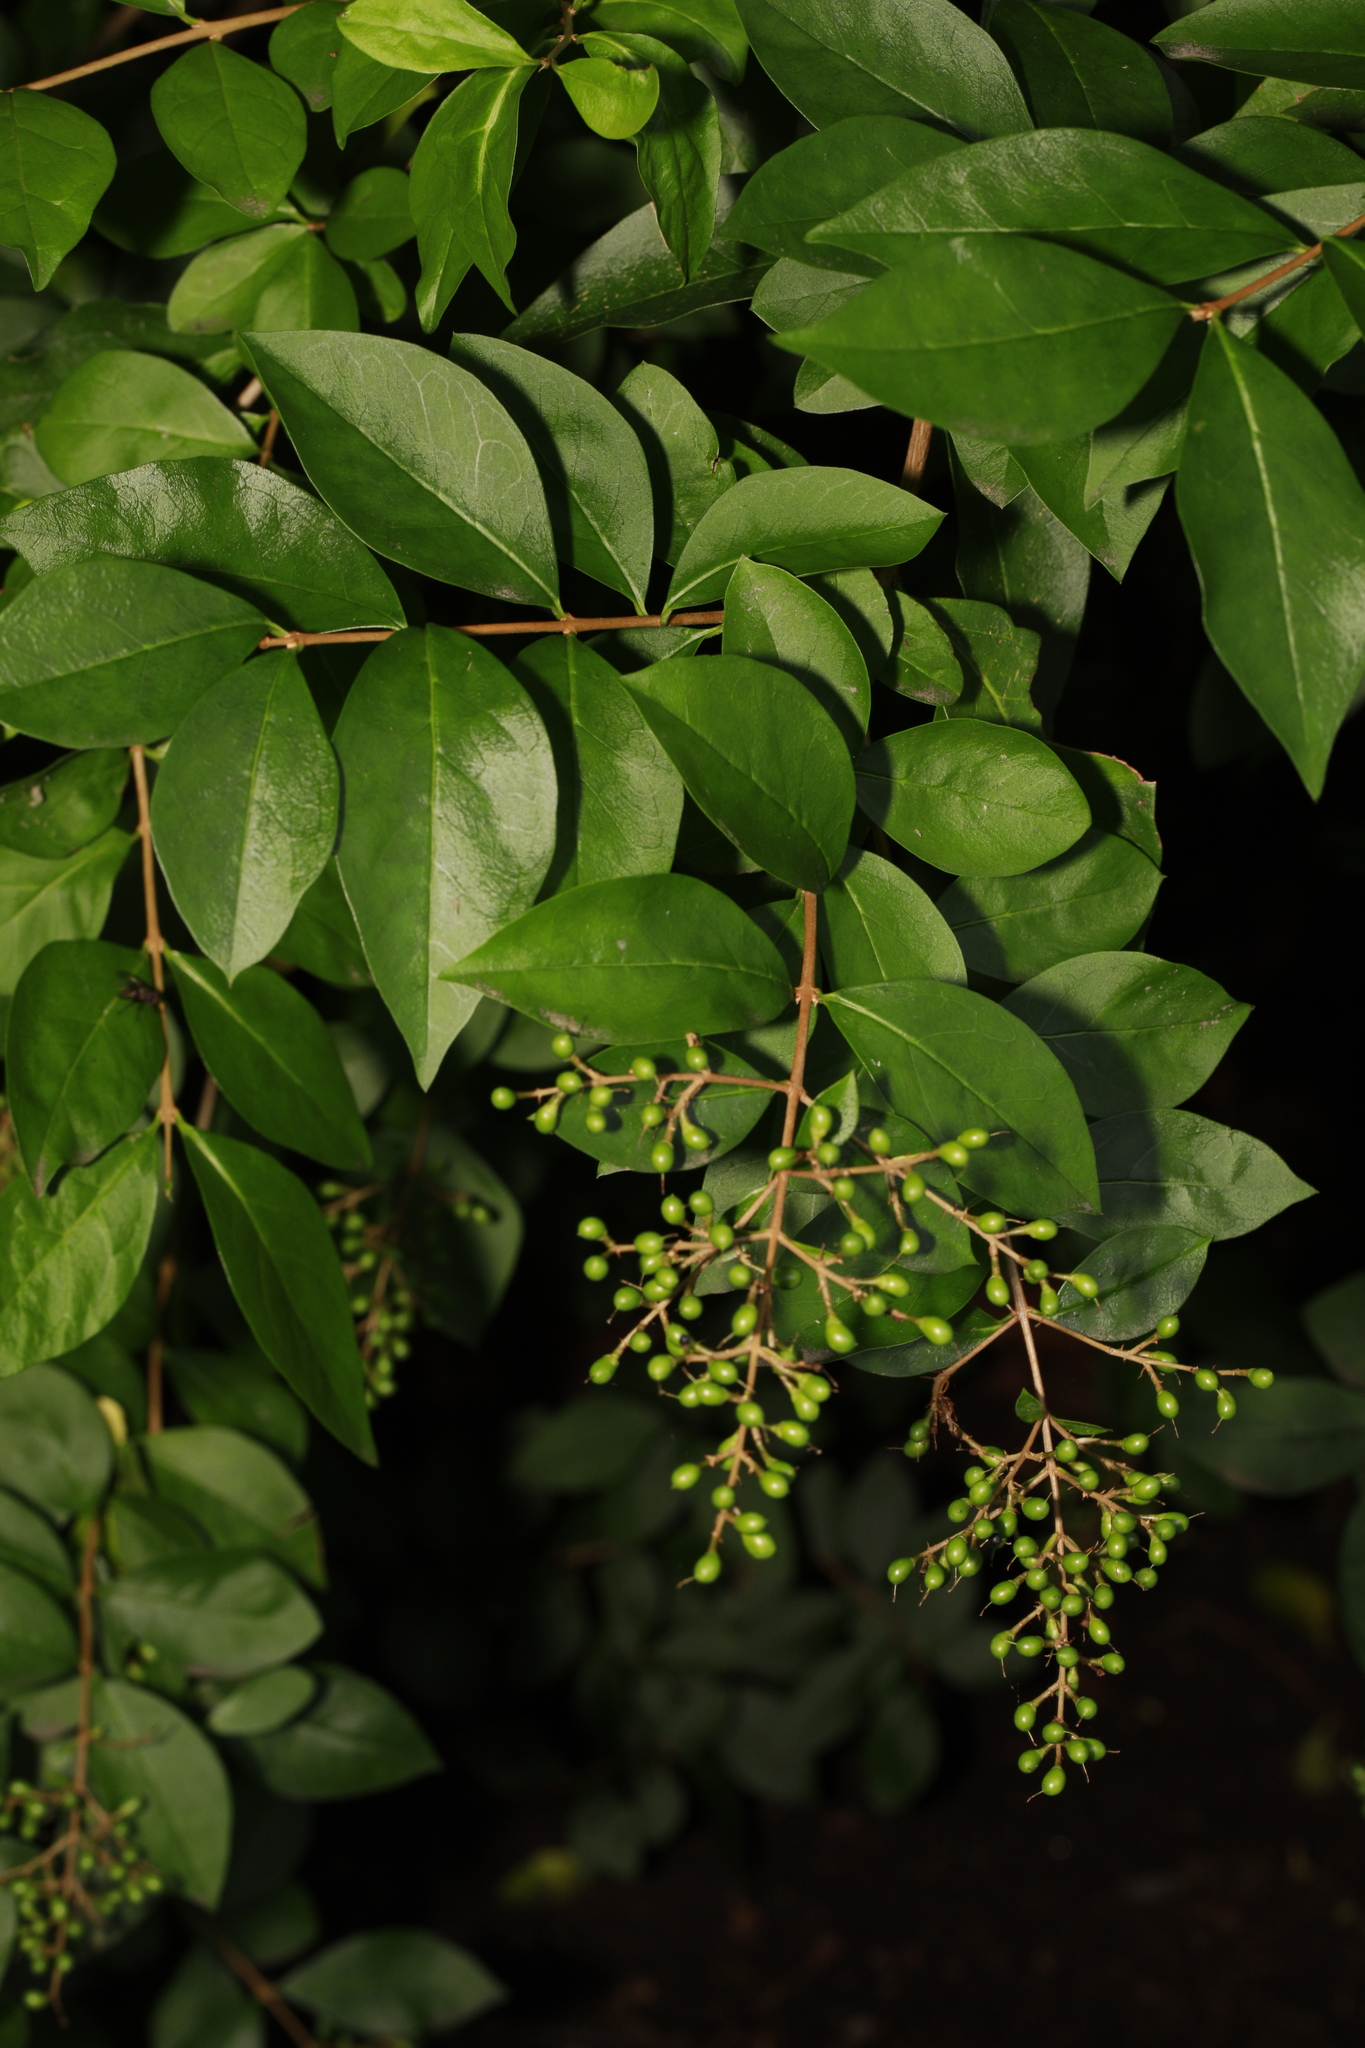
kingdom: Plantae
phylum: Tracheophyta
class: Magnoliopsida
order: Lamiales
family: Oleaceae
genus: Ligustrum
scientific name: Ligustrum ovalifolium
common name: California privet
